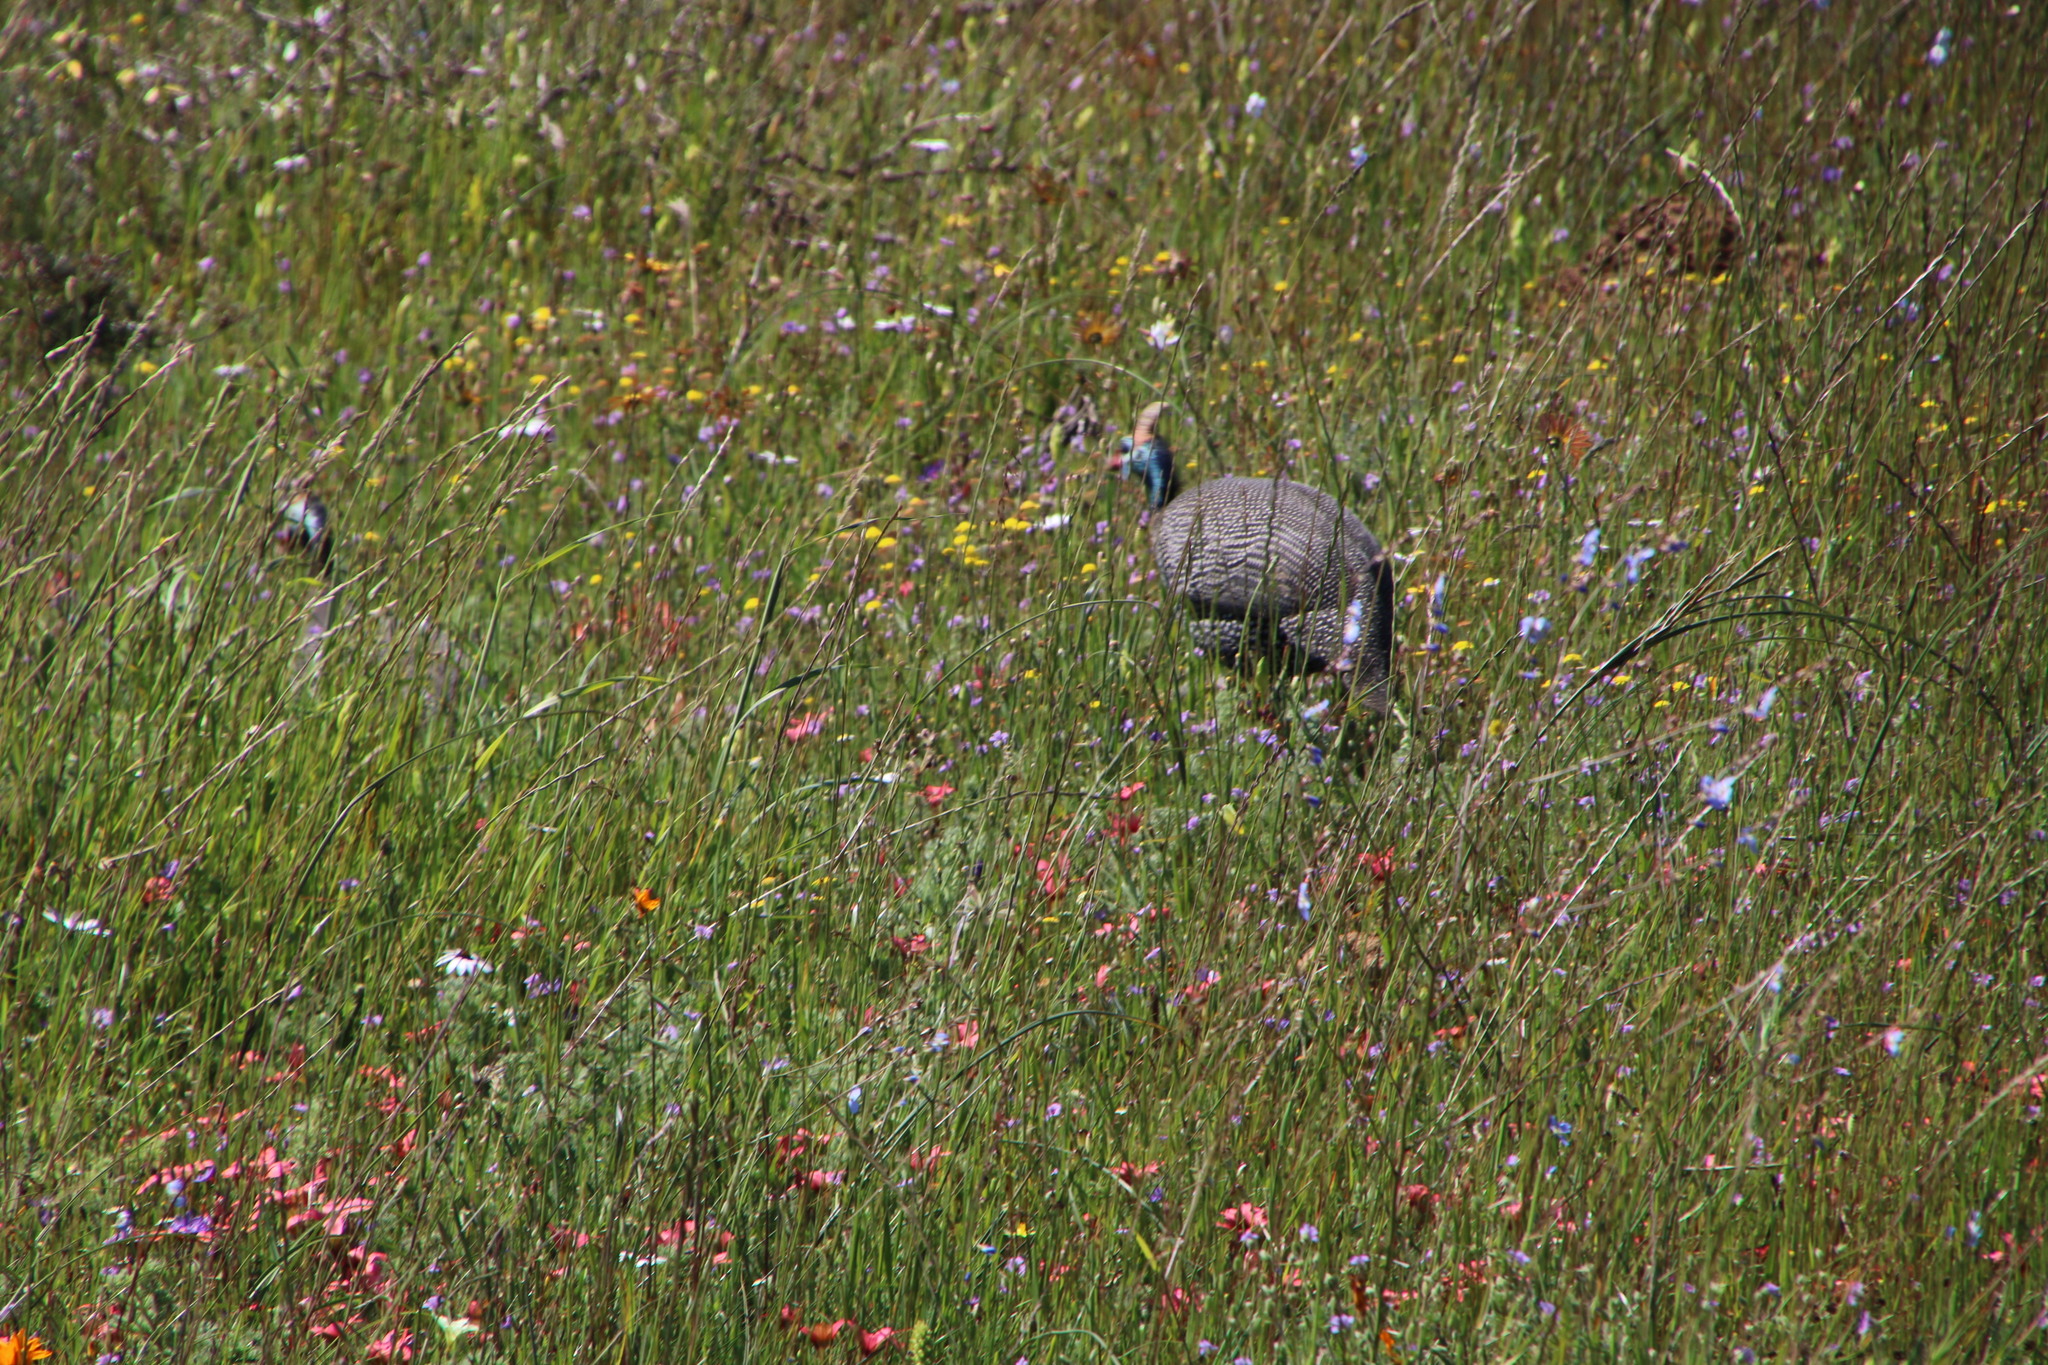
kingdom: Animalia
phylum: Chordata
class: Aves
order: Galliformes
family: Numididae
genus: Numida
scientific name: Numida meleagris
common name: Helmeted guineafowl
